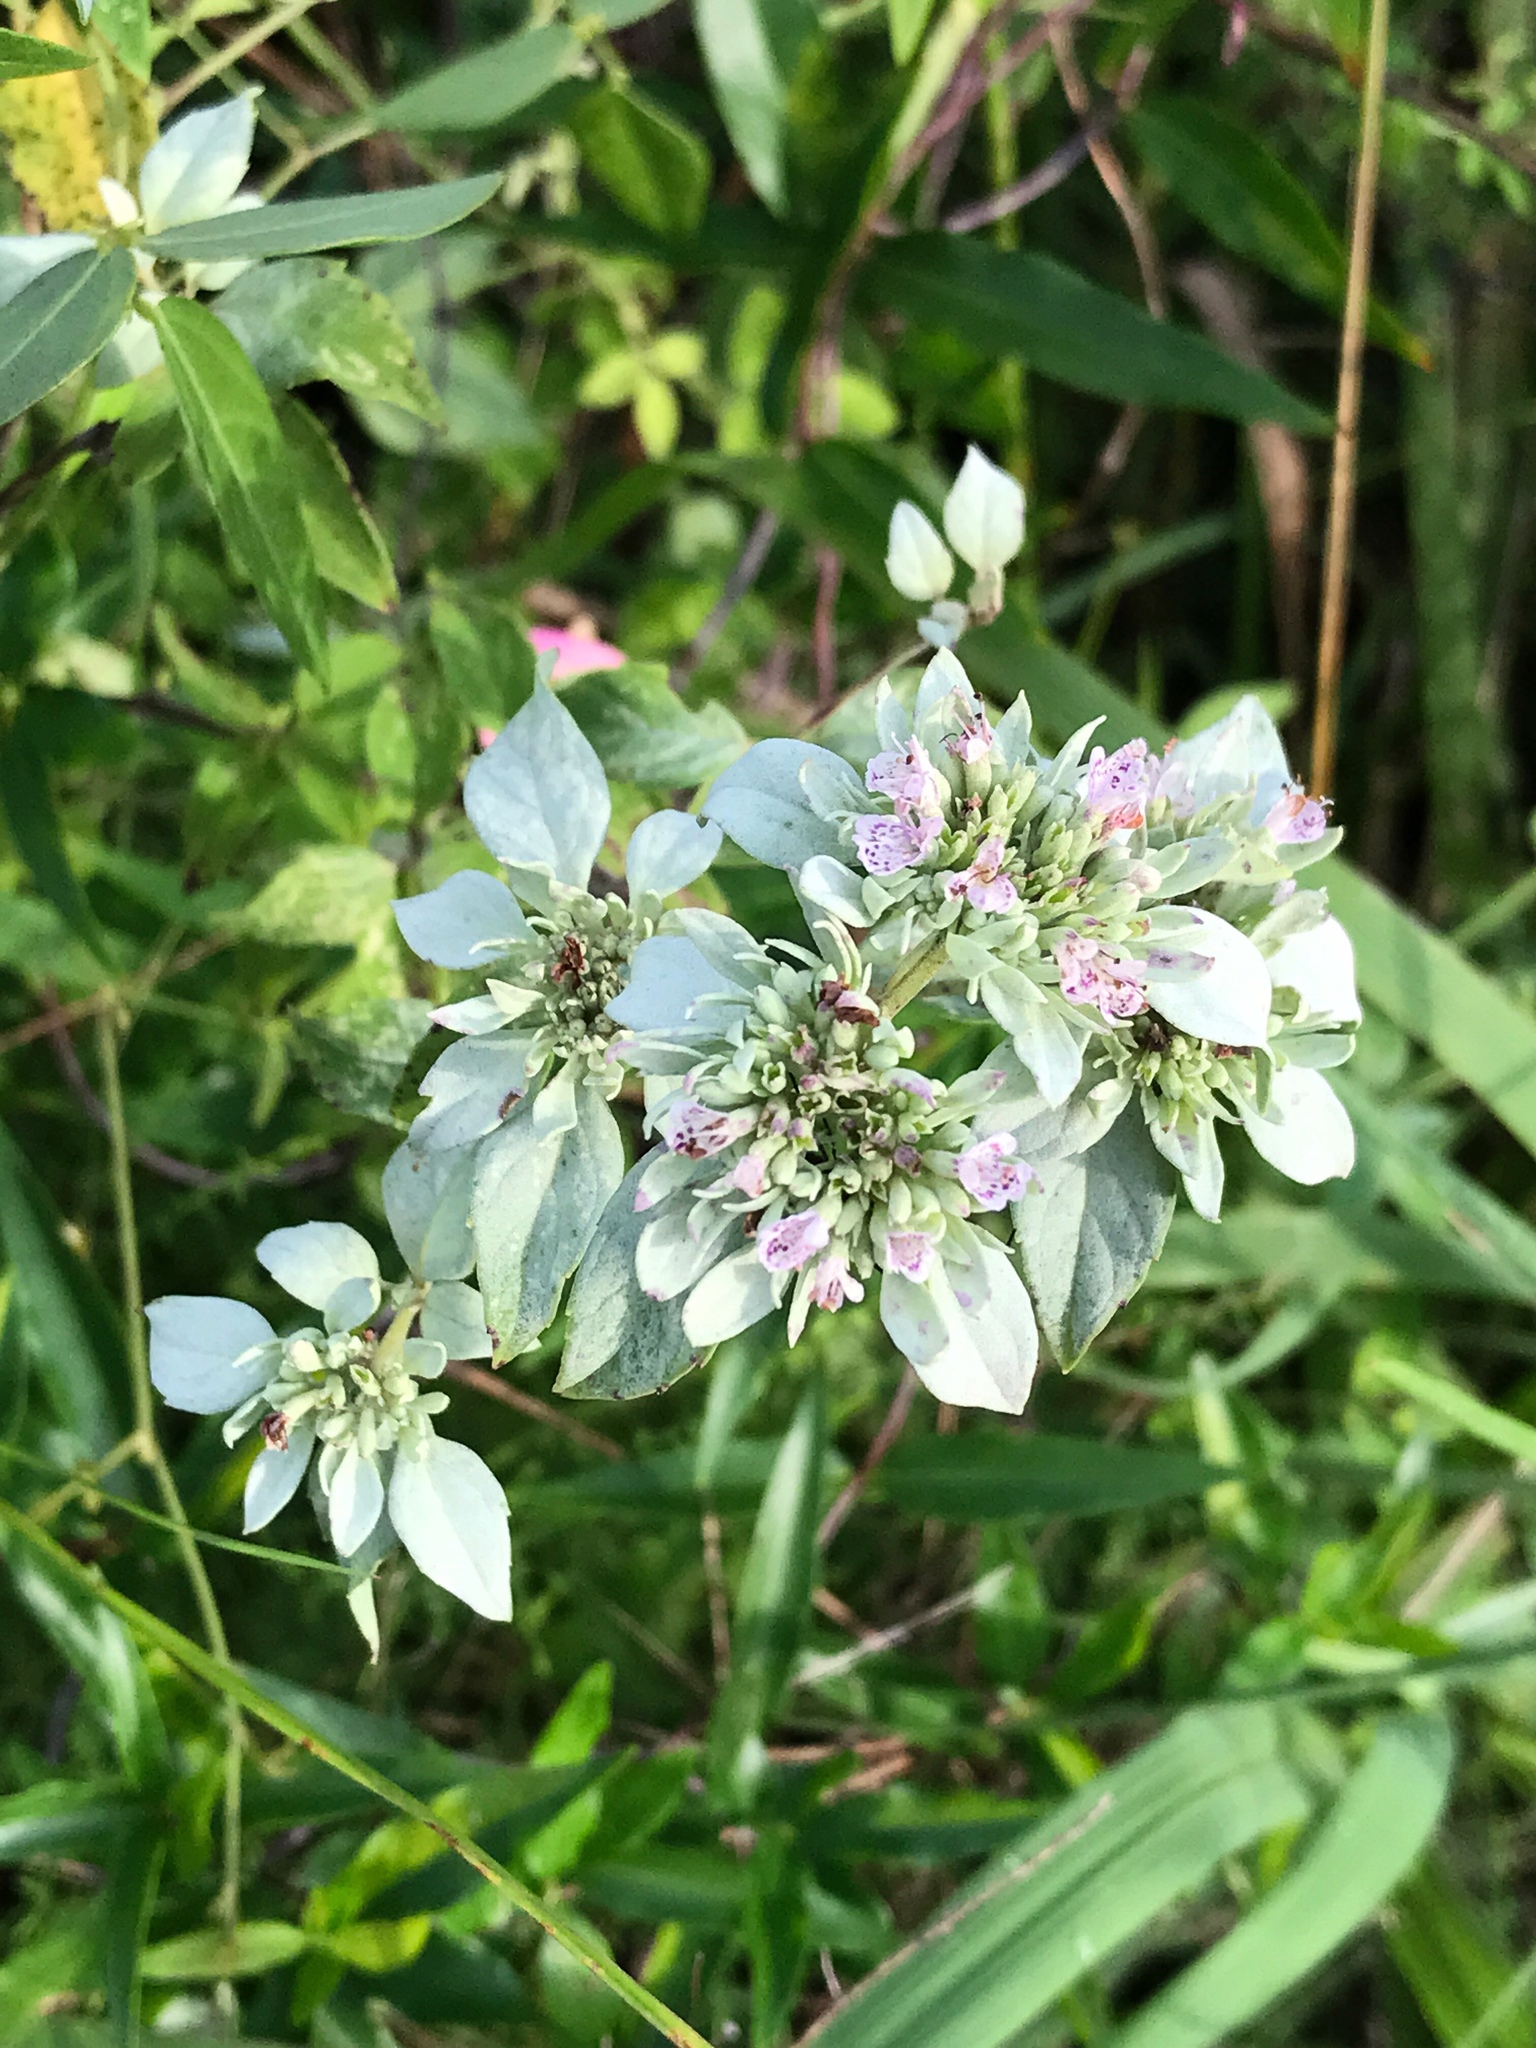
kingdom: Plantae
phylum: Tracheophyta
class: Magnoliopsida
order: Lamiales
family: Lamiaceae
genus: Pycnanthemum
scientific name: Pycnanthemum albescens
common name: White-leaf mountain-mint
